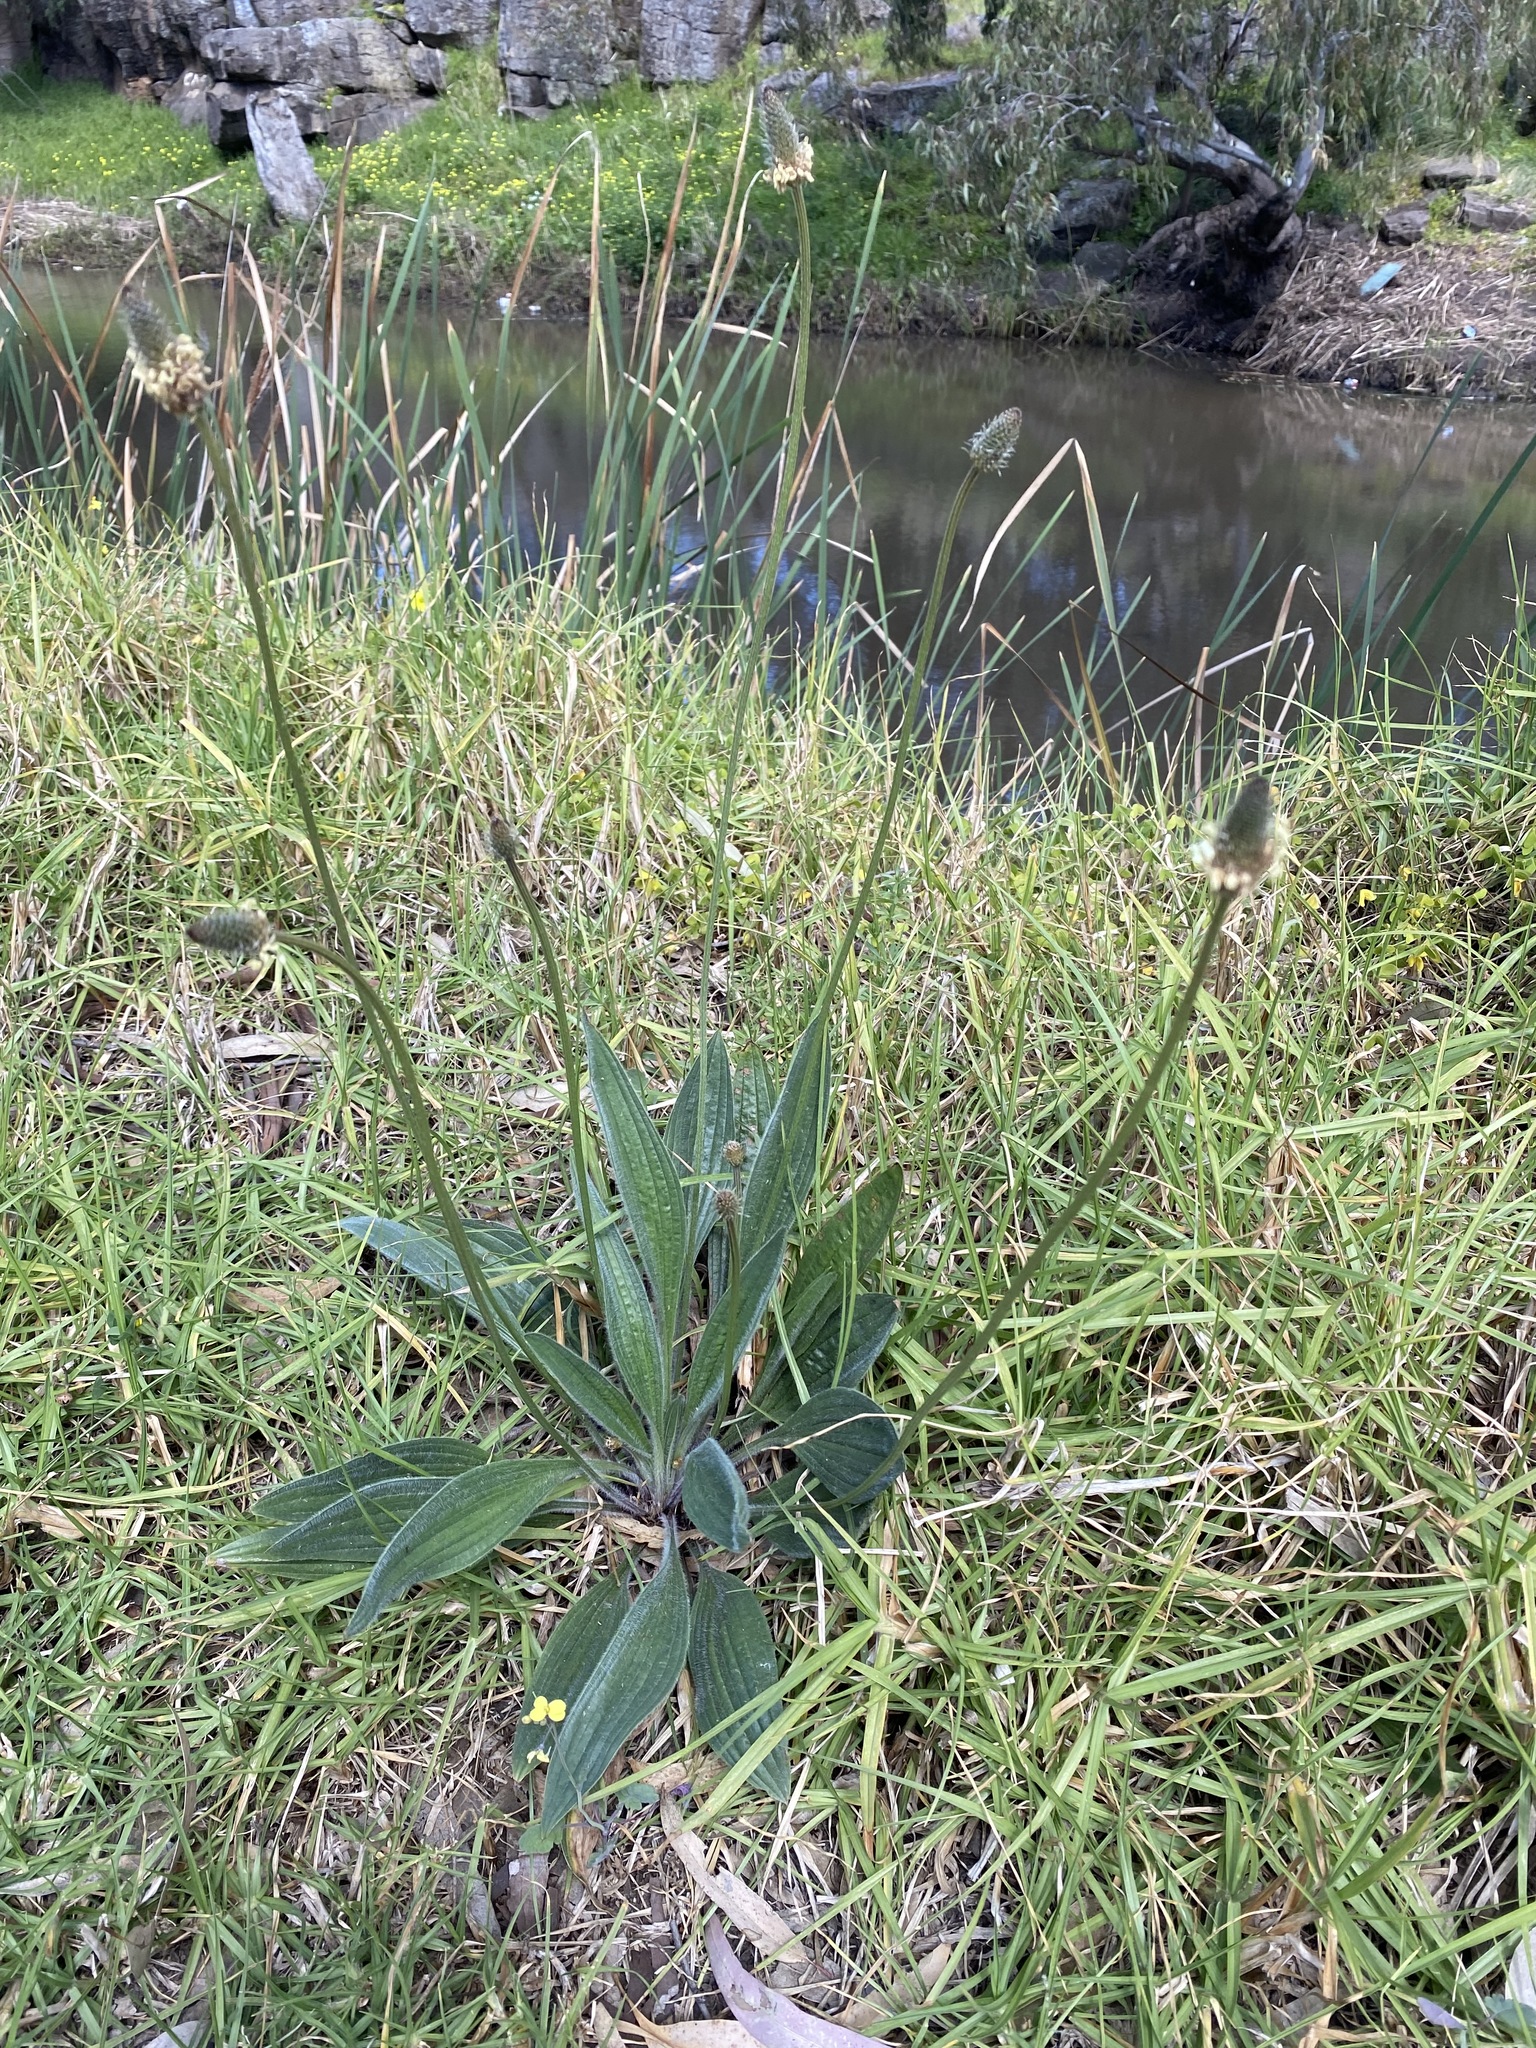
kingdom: Plantae
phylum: Tracheophyta
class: Magnoliopsida
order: Lamiales
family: Plantaginaceae
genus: Plantago
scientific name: Plantago lanceolata
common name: Ribwort plantain
